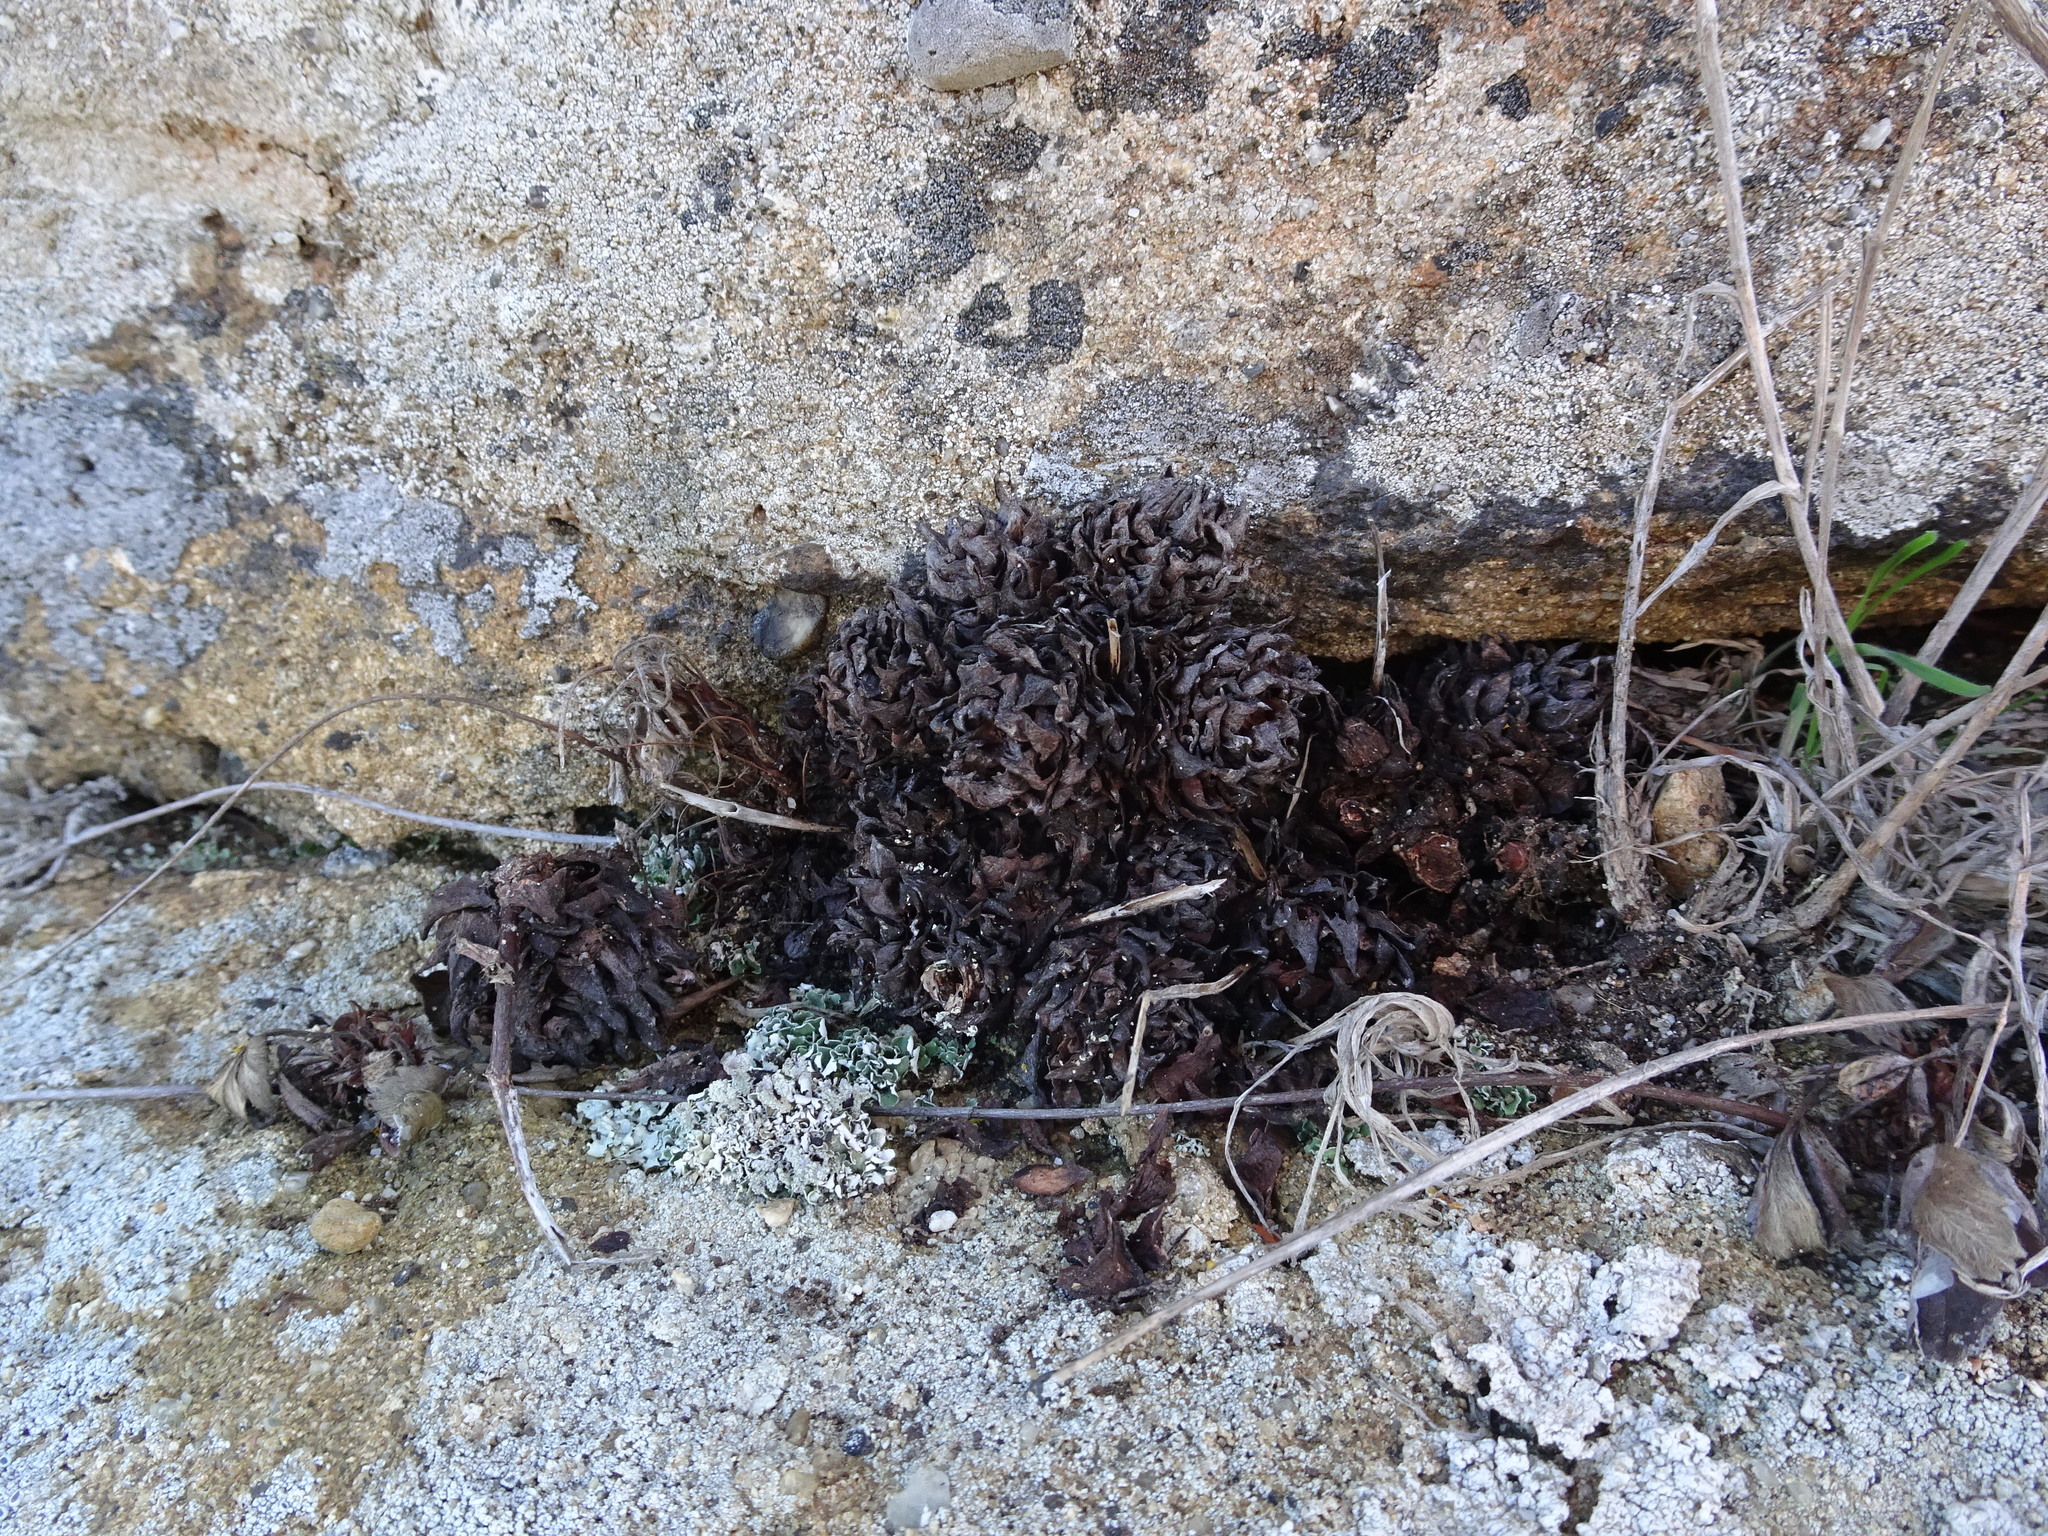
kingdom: Plantae
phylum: Tracheophyta
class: Magnoliopsida
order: Lamiales
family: Orobanchaceae
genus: Aphyllon
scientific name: Aphyllon californicum
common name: California broomrape
